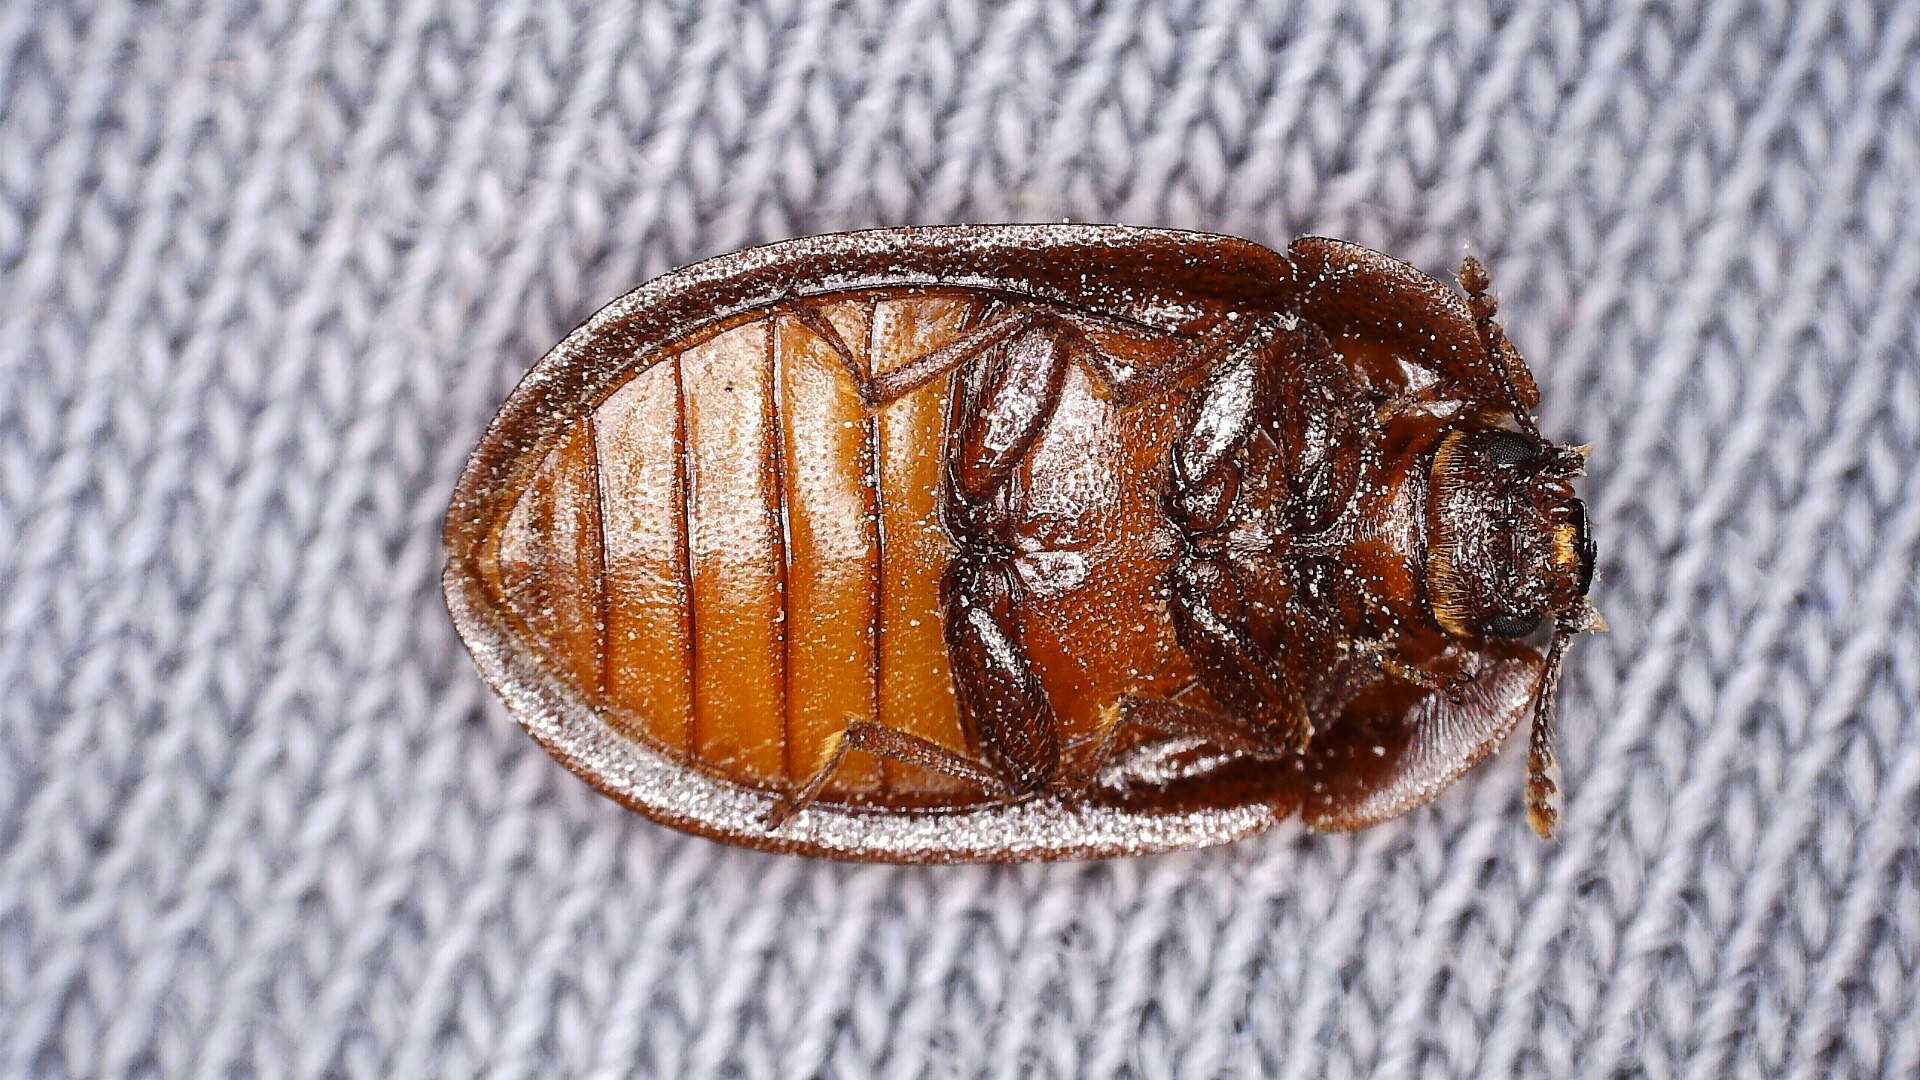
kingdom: Animalia
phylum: Arthropoda
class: Insecta
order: Coleoptera
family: Trogossitidae
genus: Peltis
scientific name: Peltis ferruginea
